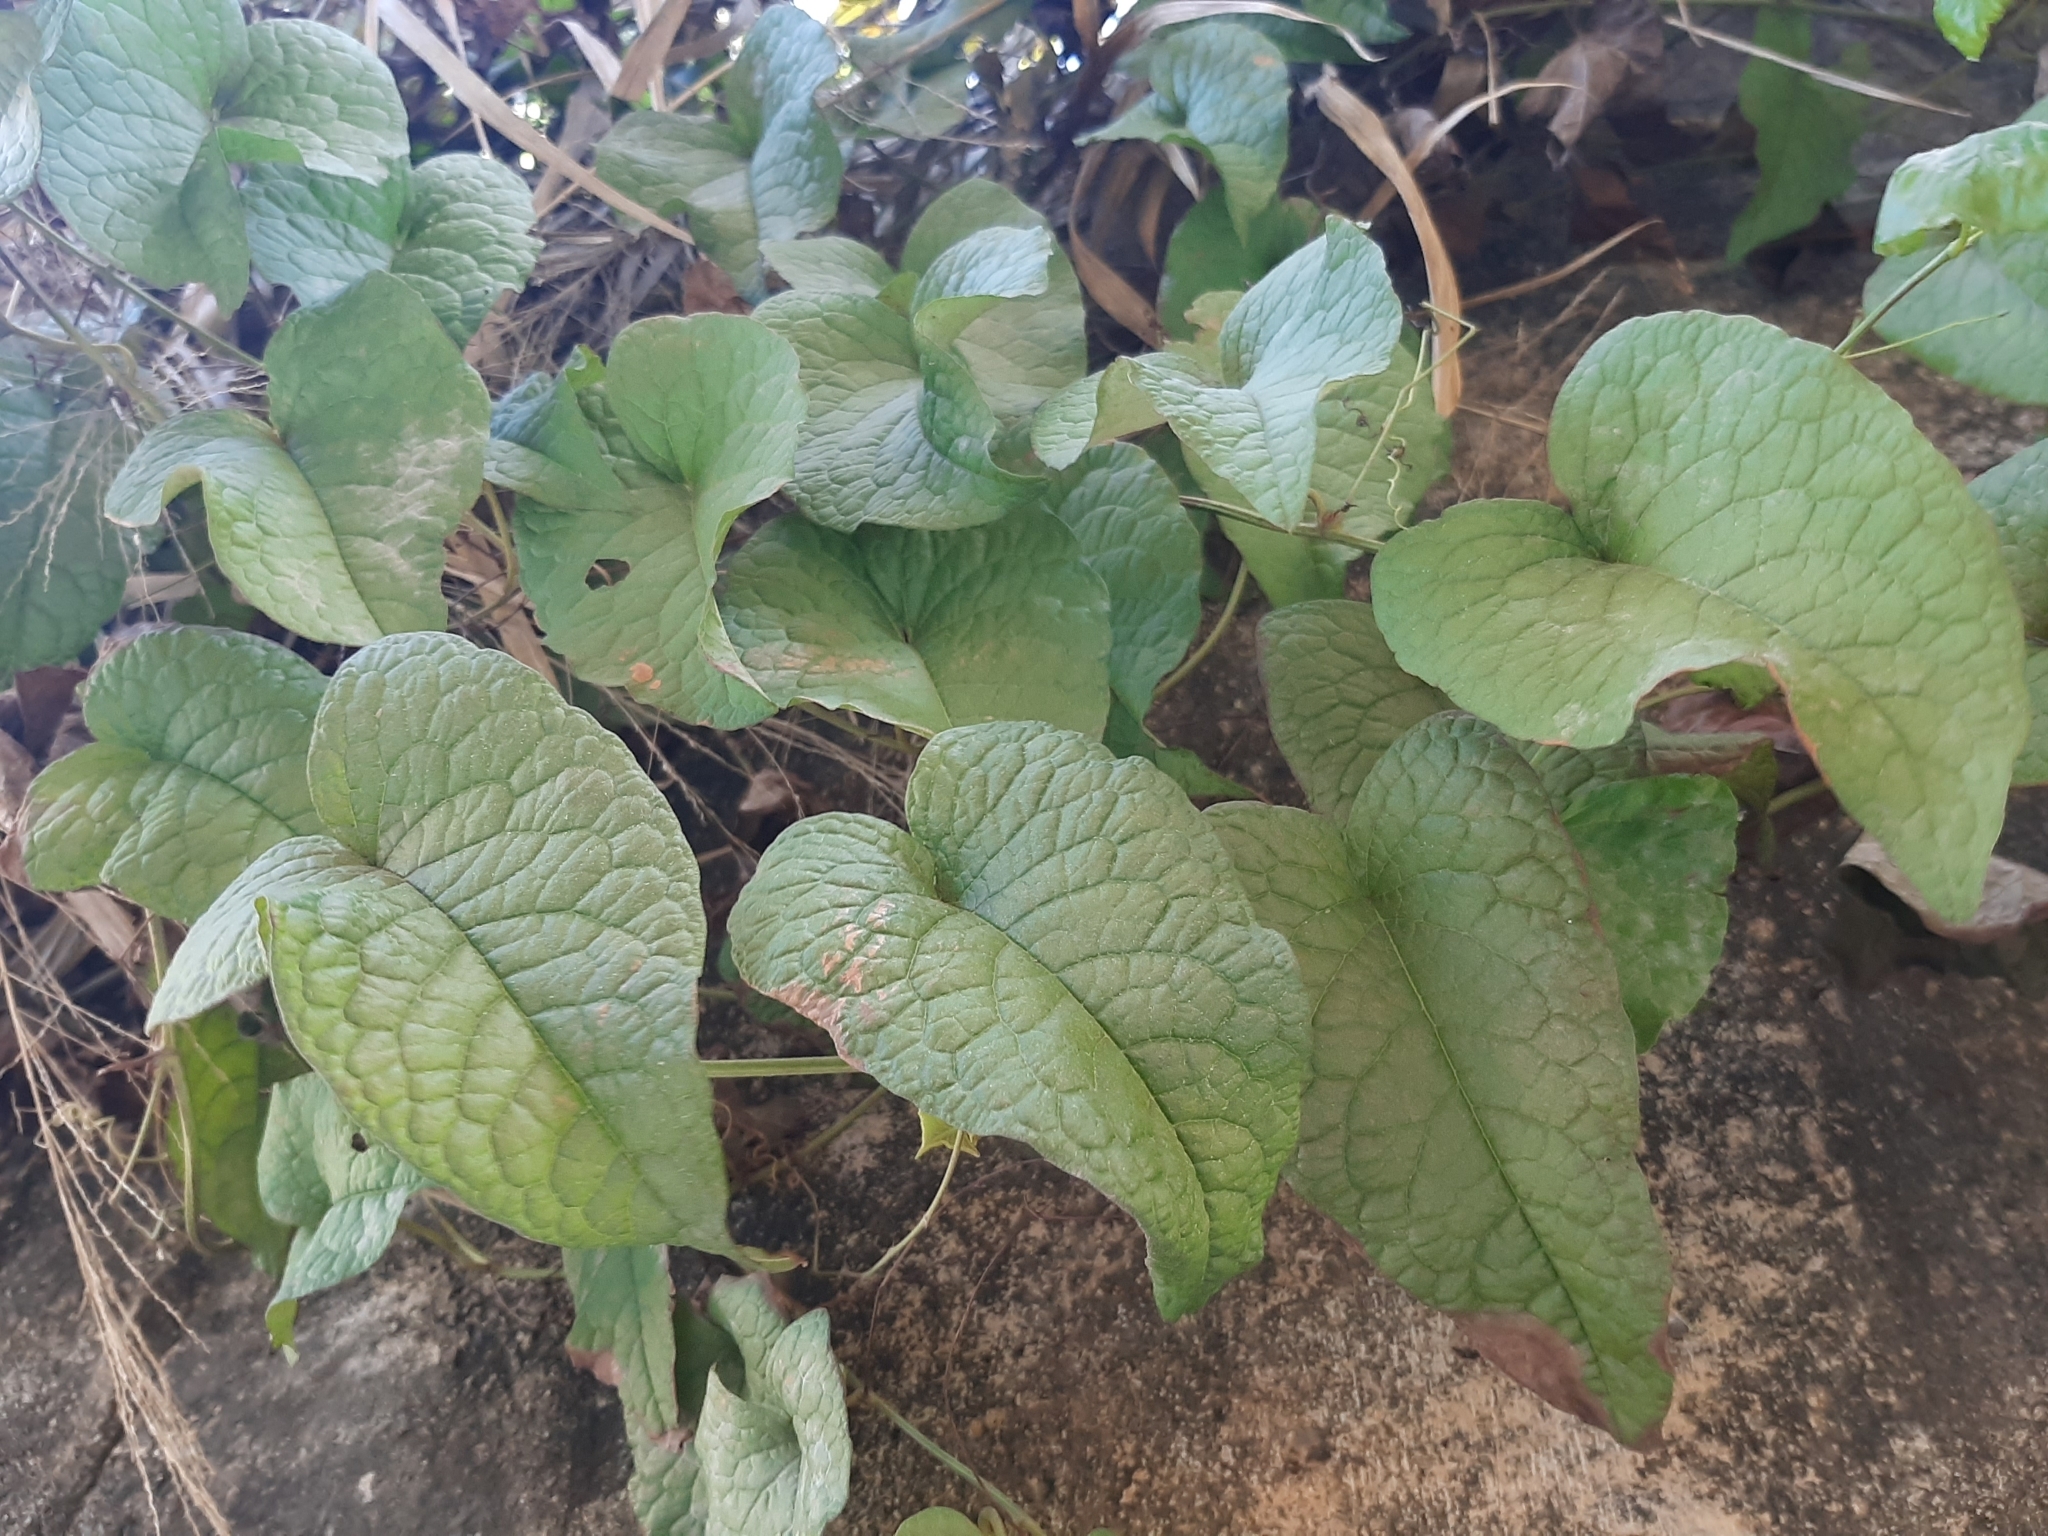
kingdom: Plantae
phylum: Tracheophyta
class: Magnoliopsida
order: Caryophyllales
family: Polygonaceae
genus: Antigonon
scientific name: Antigonon leptopus
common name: Coral vine
